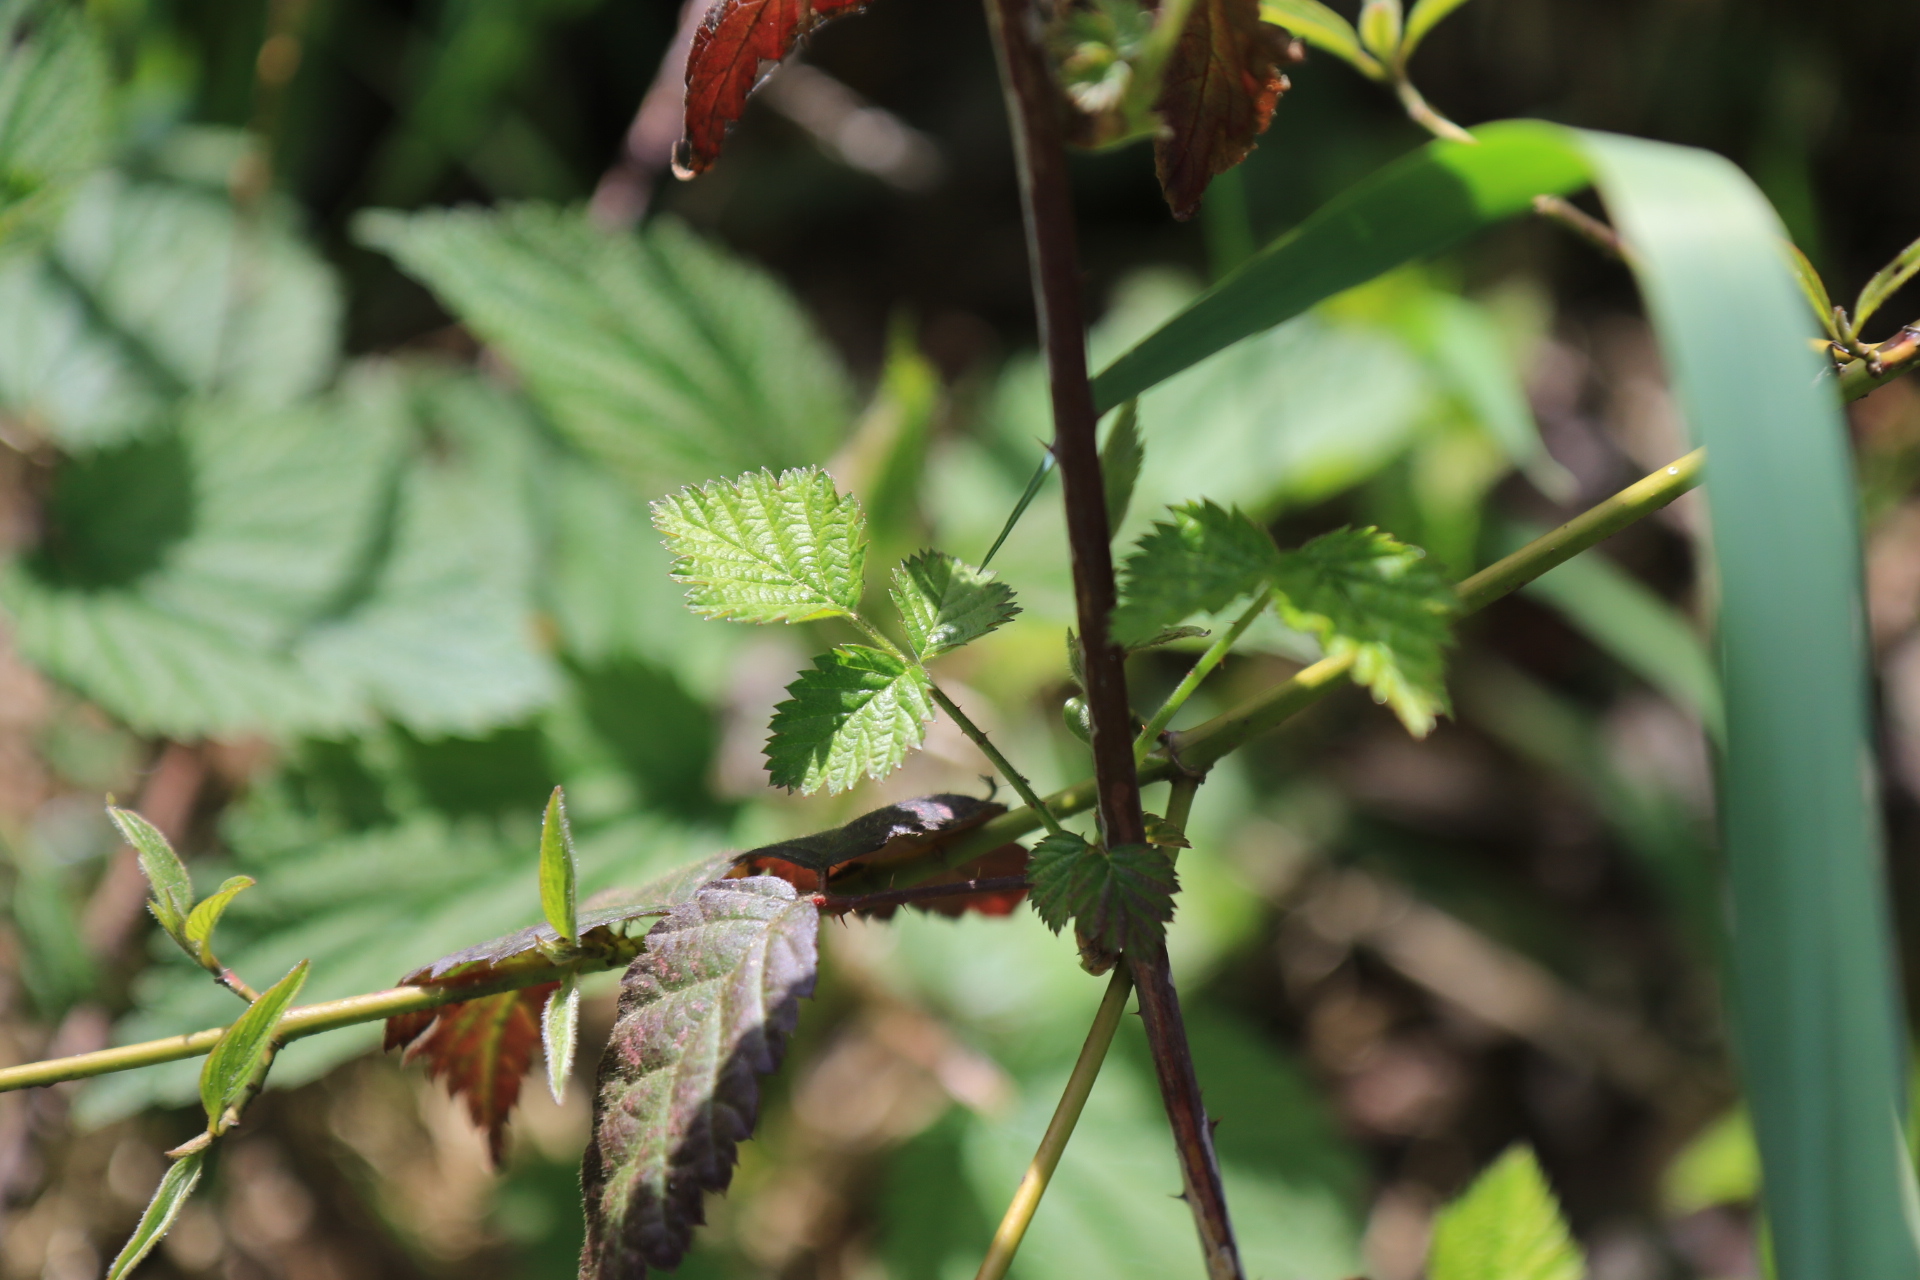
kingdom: Plantae
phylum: Tracheophyta
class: Magnoliopsida
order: Rosales
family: Rosaceae
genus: Rubus
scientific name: Rubus ursinus
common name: Pacific blackberry
